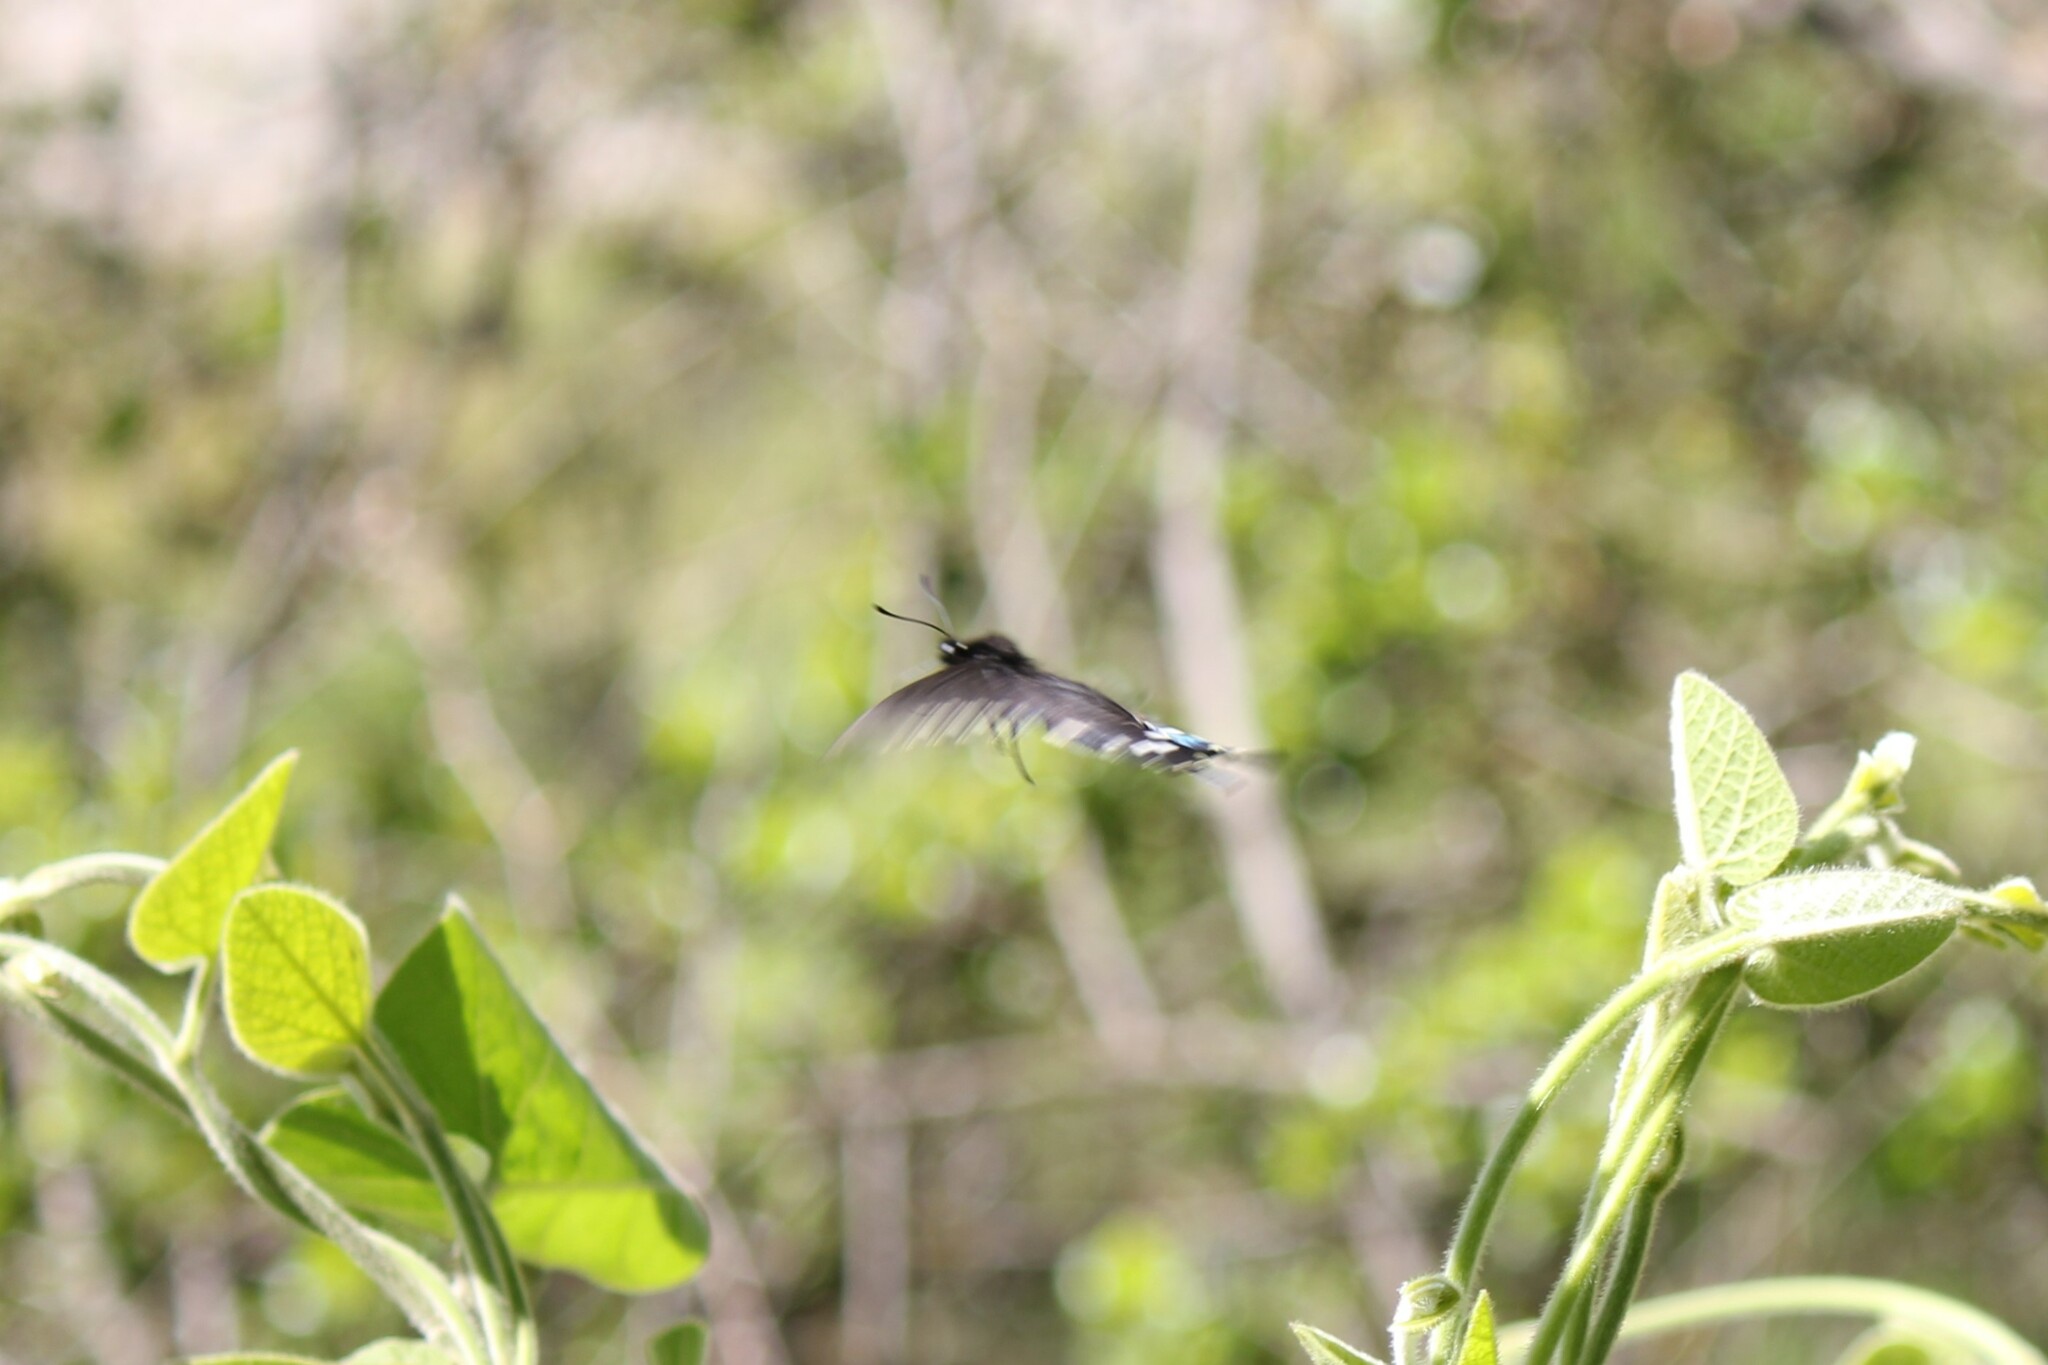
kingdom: Animalia
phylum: Arthropoda
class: Insecta
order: Lepidoptera
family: Papilionidae
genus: Battus
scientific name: Battus philenor
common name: Pipevine swallowtail
